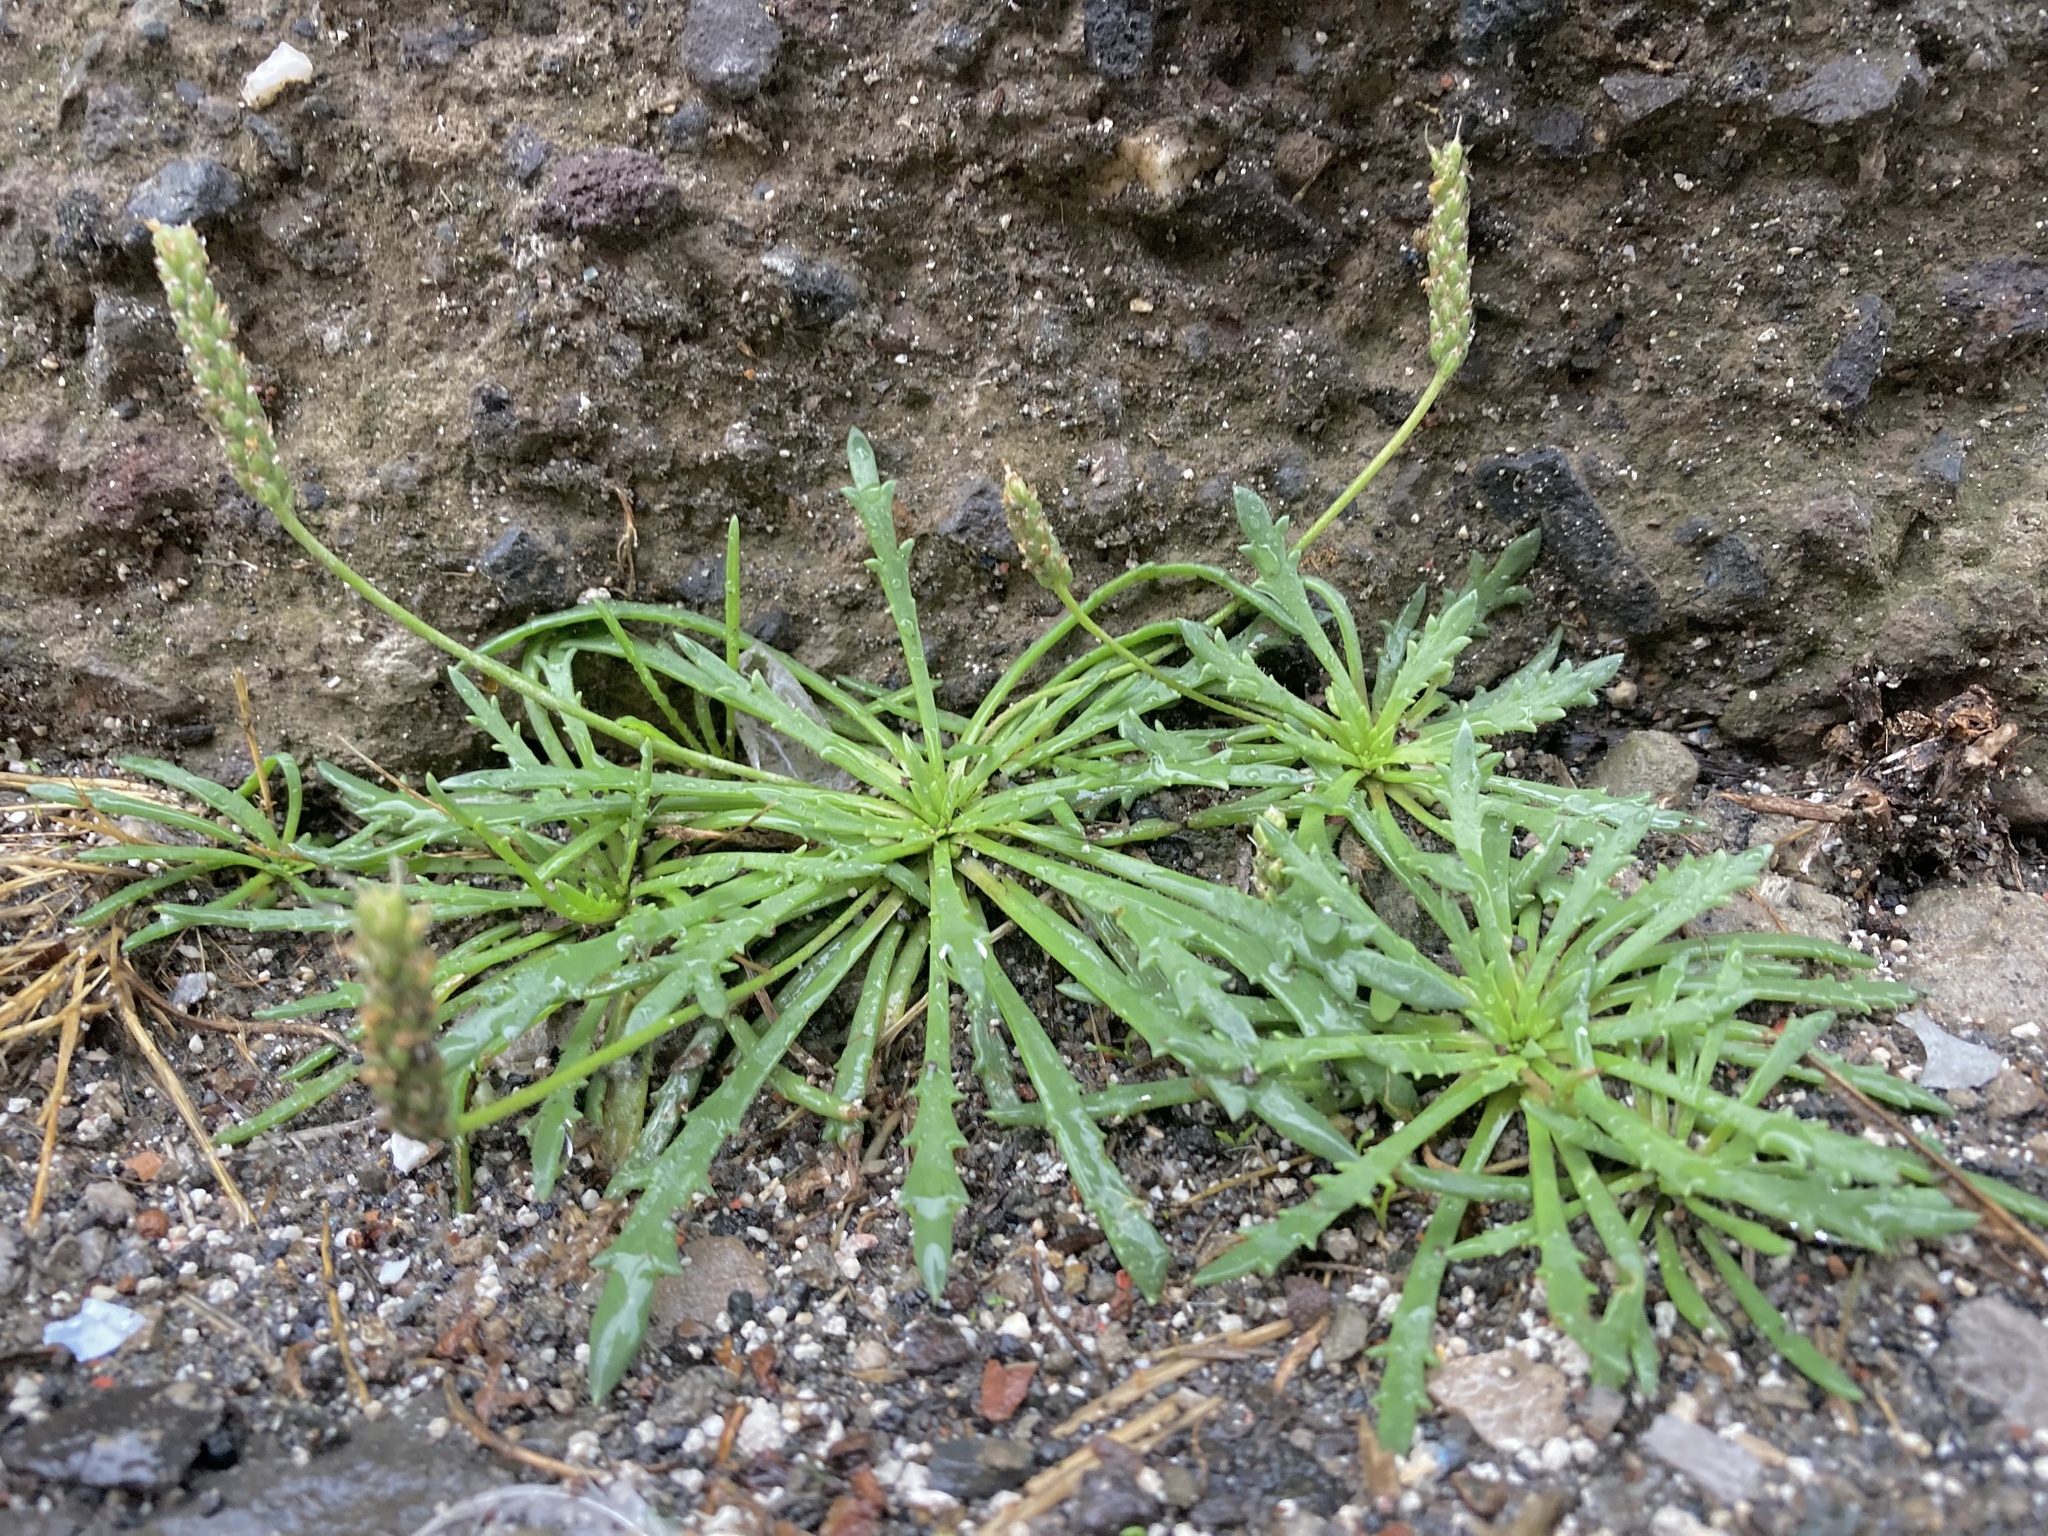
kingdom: Plantae
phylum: Tracheophyta
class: Magnoliopsida
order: Lamiales
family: Plantaginaceae
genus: Plantago
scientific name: Plantago coronopus
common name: Buck's-horn plantain
